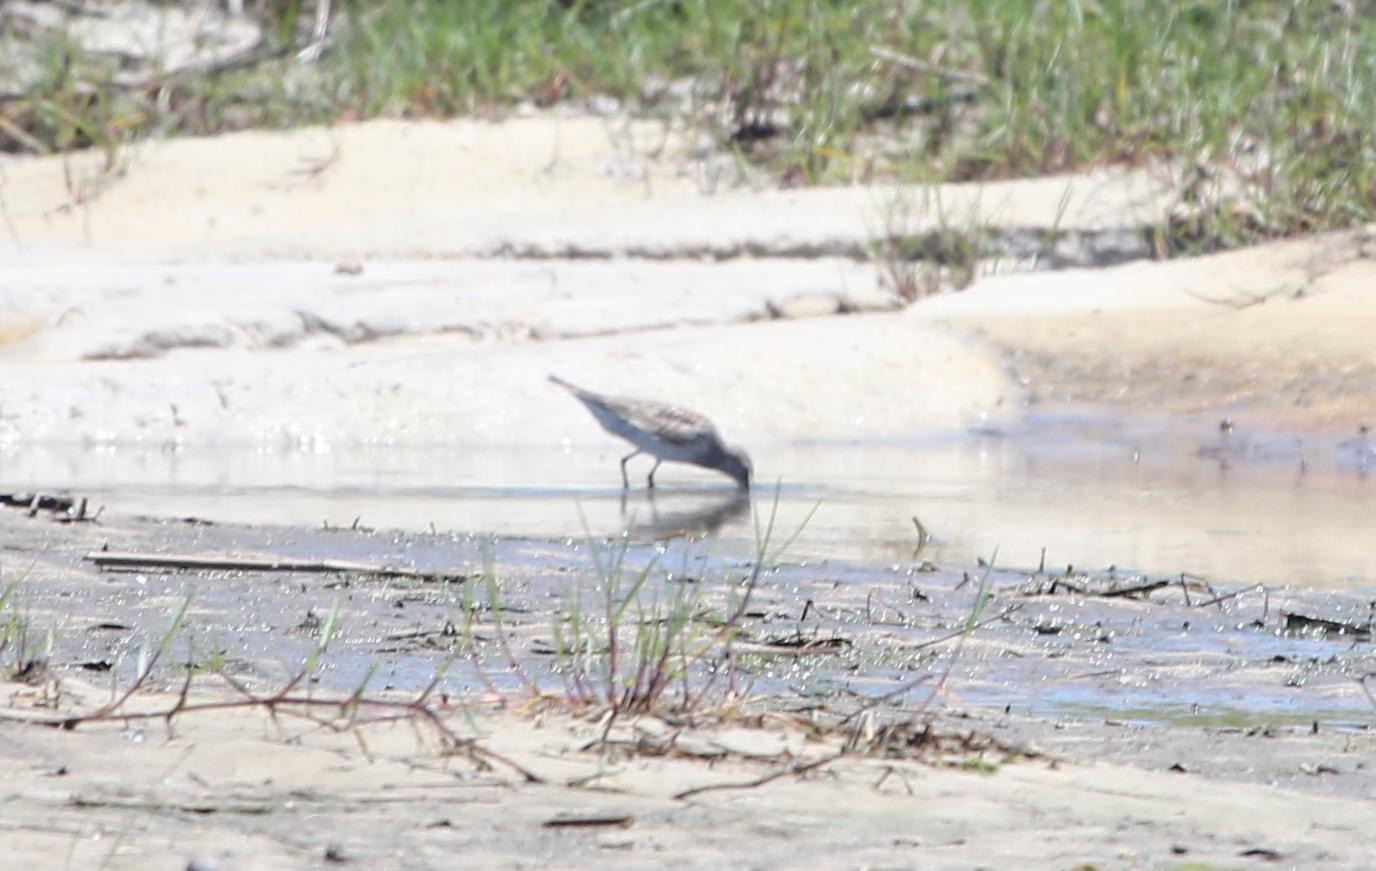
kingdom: Animalia
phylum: Chordata
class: Aves
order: Charadriiformes
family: Scolopacidae
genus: Calidris
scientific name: Calidris fuscicollis
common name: White-rumped sandpiper
